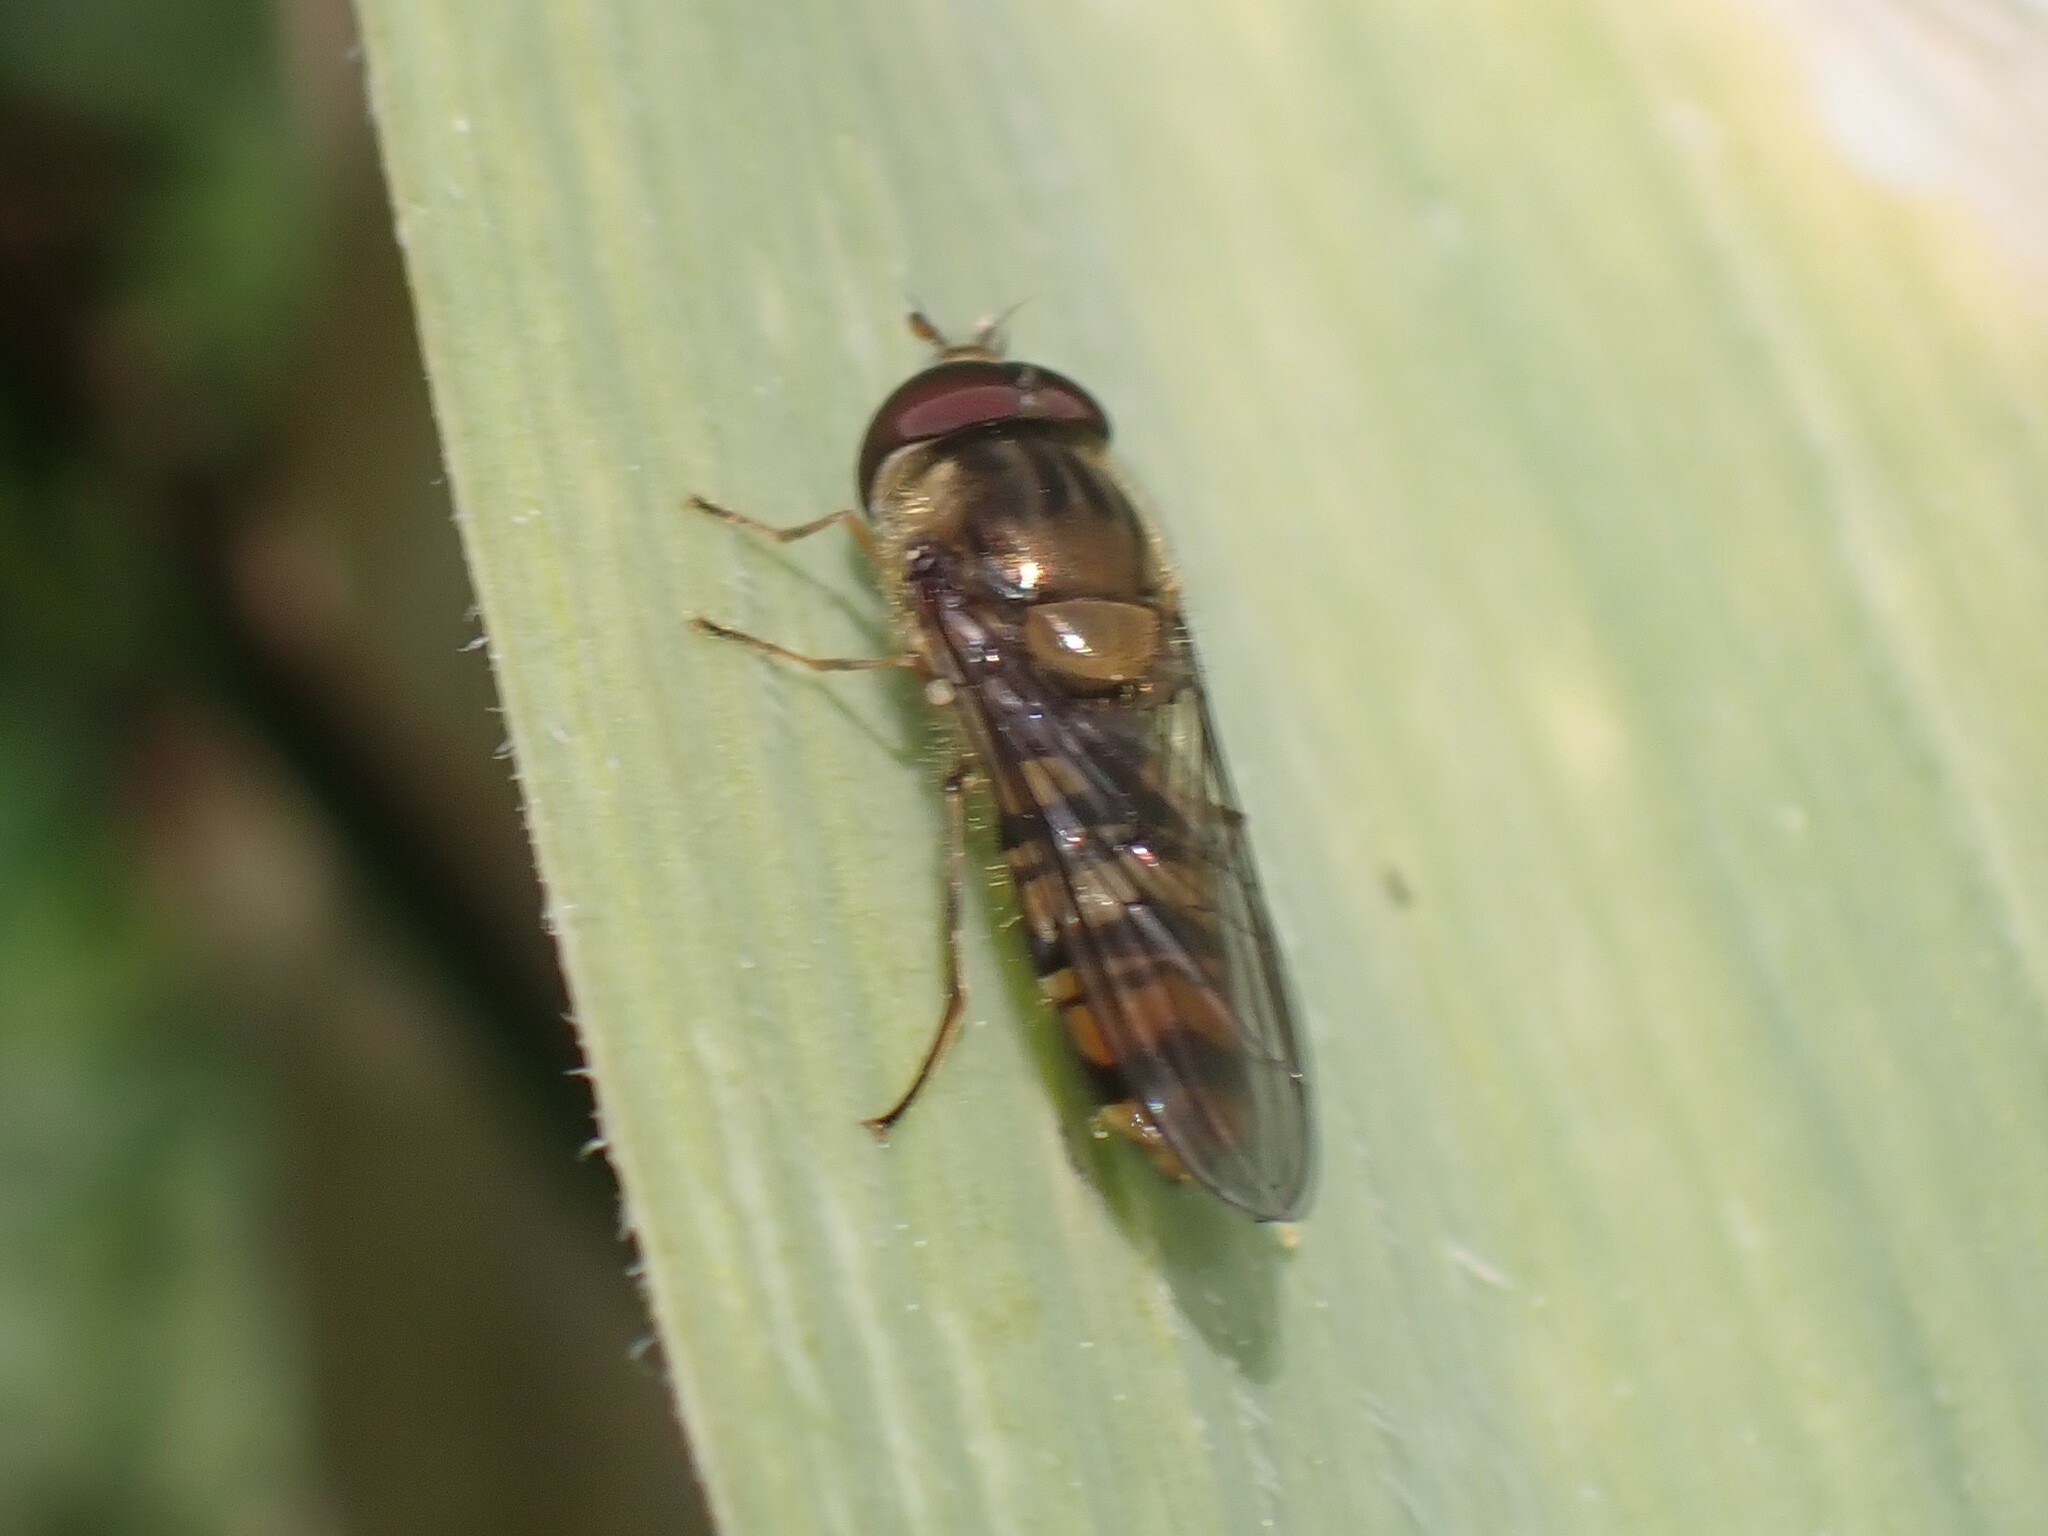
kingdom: Animalia
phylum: Arthropoda
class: Insecta
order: Diptera
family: Syrphidae
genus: Episyrphus
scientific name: Episyrphus balteatus
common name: Marmalade hoverfly
